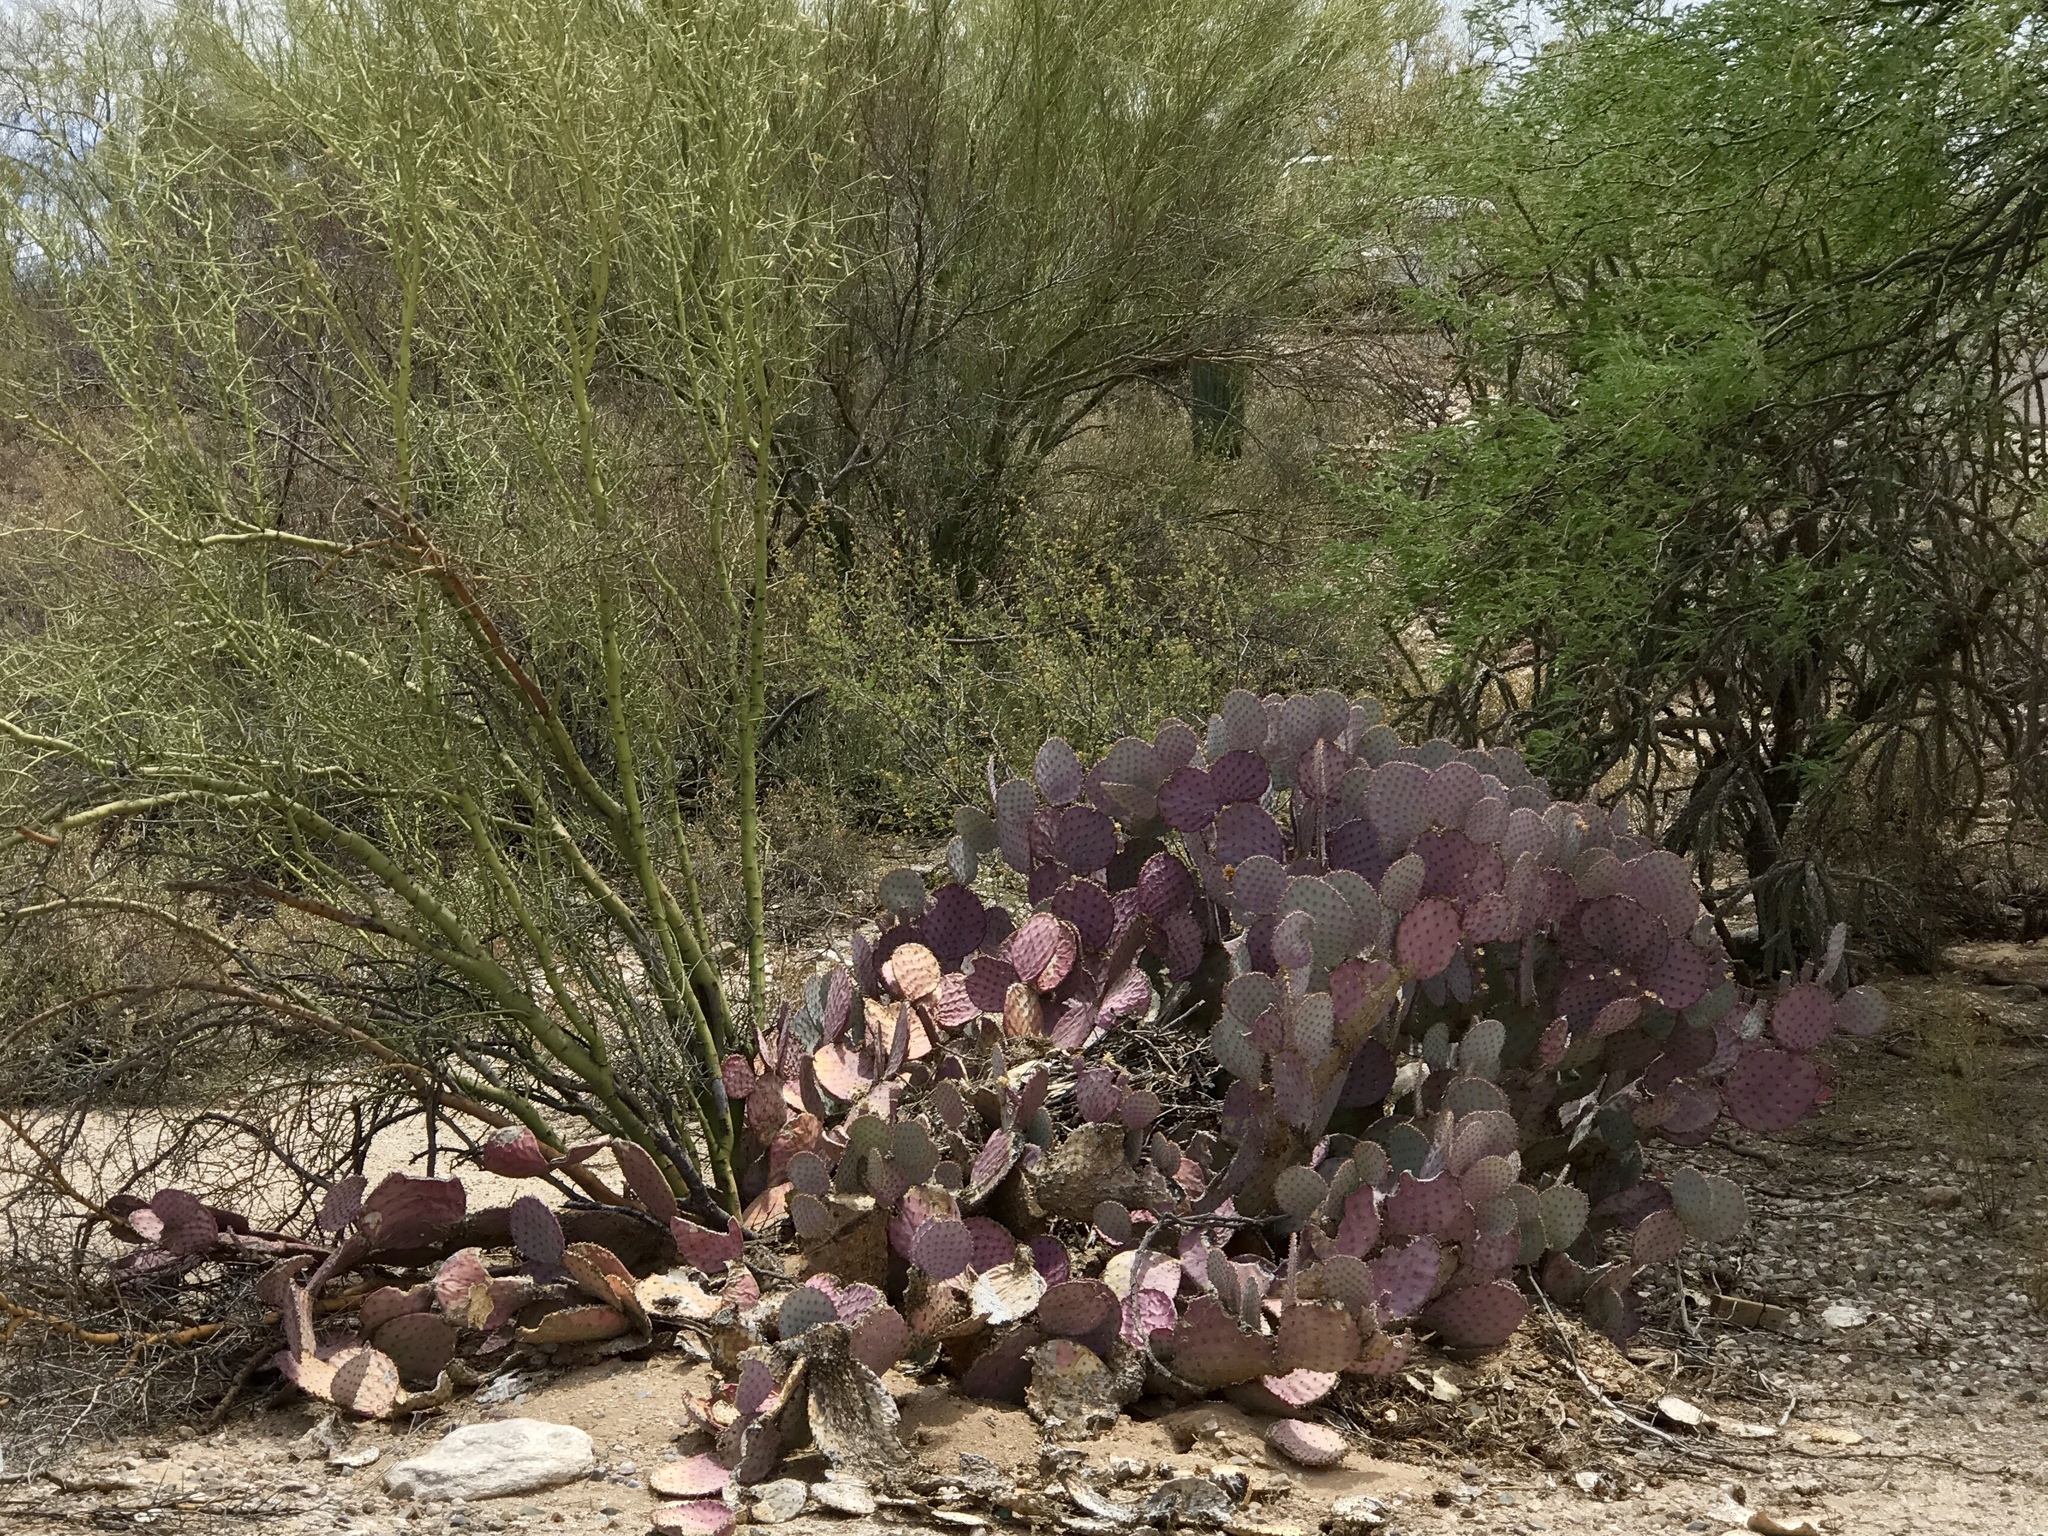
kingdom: Plantae
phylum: Tracheophyta
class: Magnoliopsida
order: Caryophyllales
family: Cactaceae
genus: Opuntia
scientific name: Opuntia gosseliniana
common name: Violet prickly-pear
